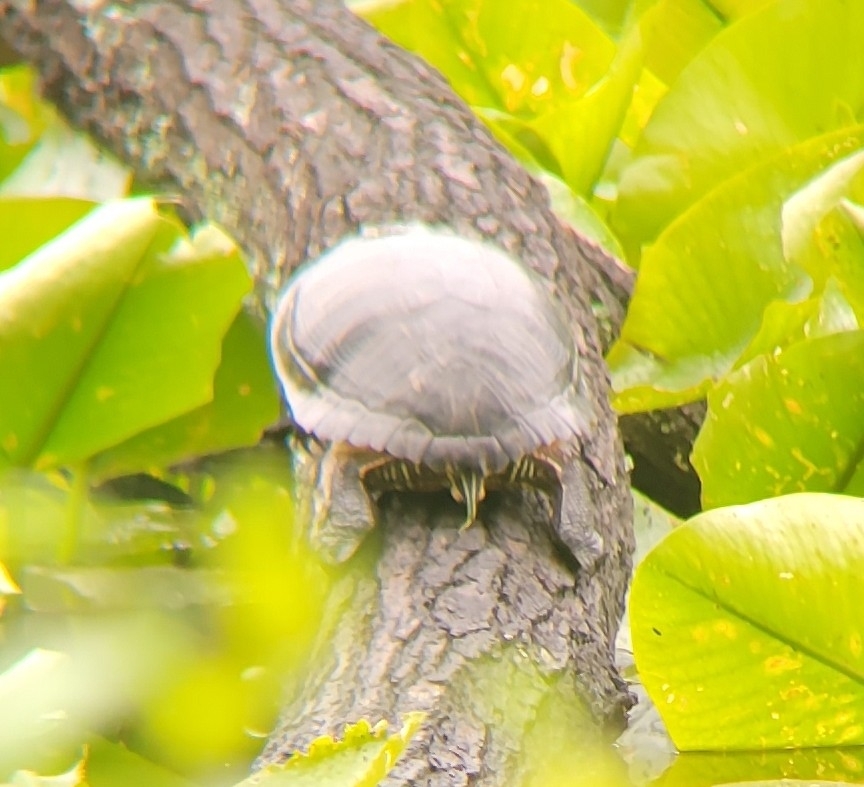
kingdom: Animalia
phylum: Chordata
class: Testudines
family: Emydidae
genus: Trachemys
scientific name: Trachemys scripta
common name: Slider
